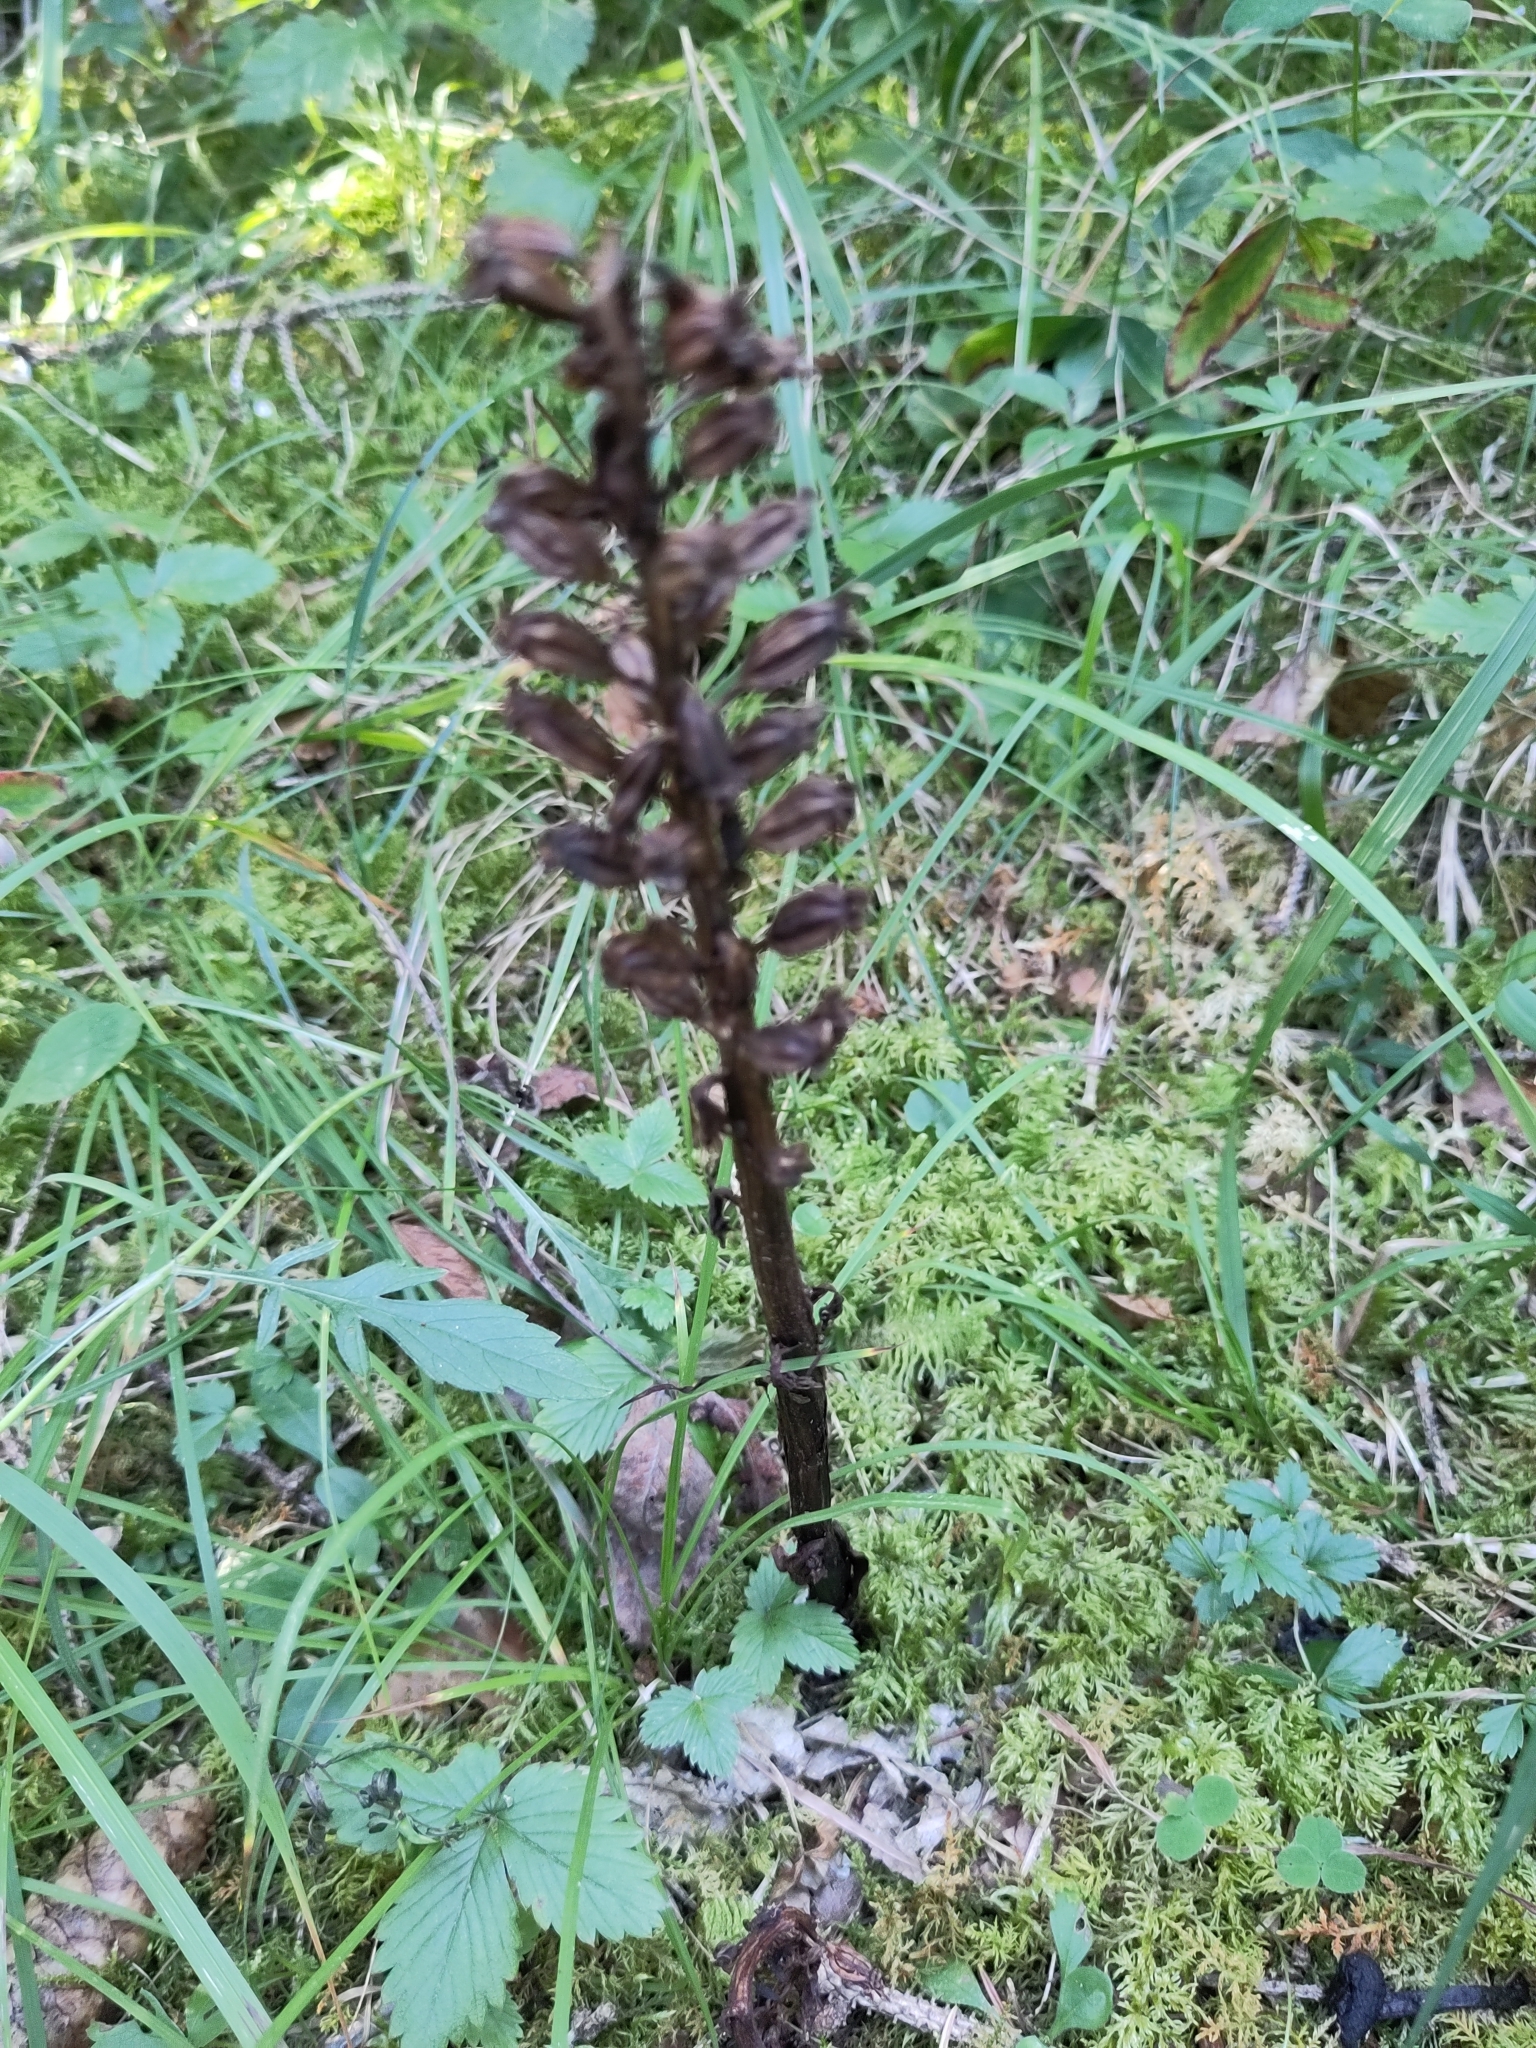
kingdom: Plantae
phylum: Tracheophyta
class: Liliopsida
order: Asparagales
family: Orchidaceae
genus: Neottia
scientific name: Neottia nidus-avis
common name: Bird's-nest orchid
